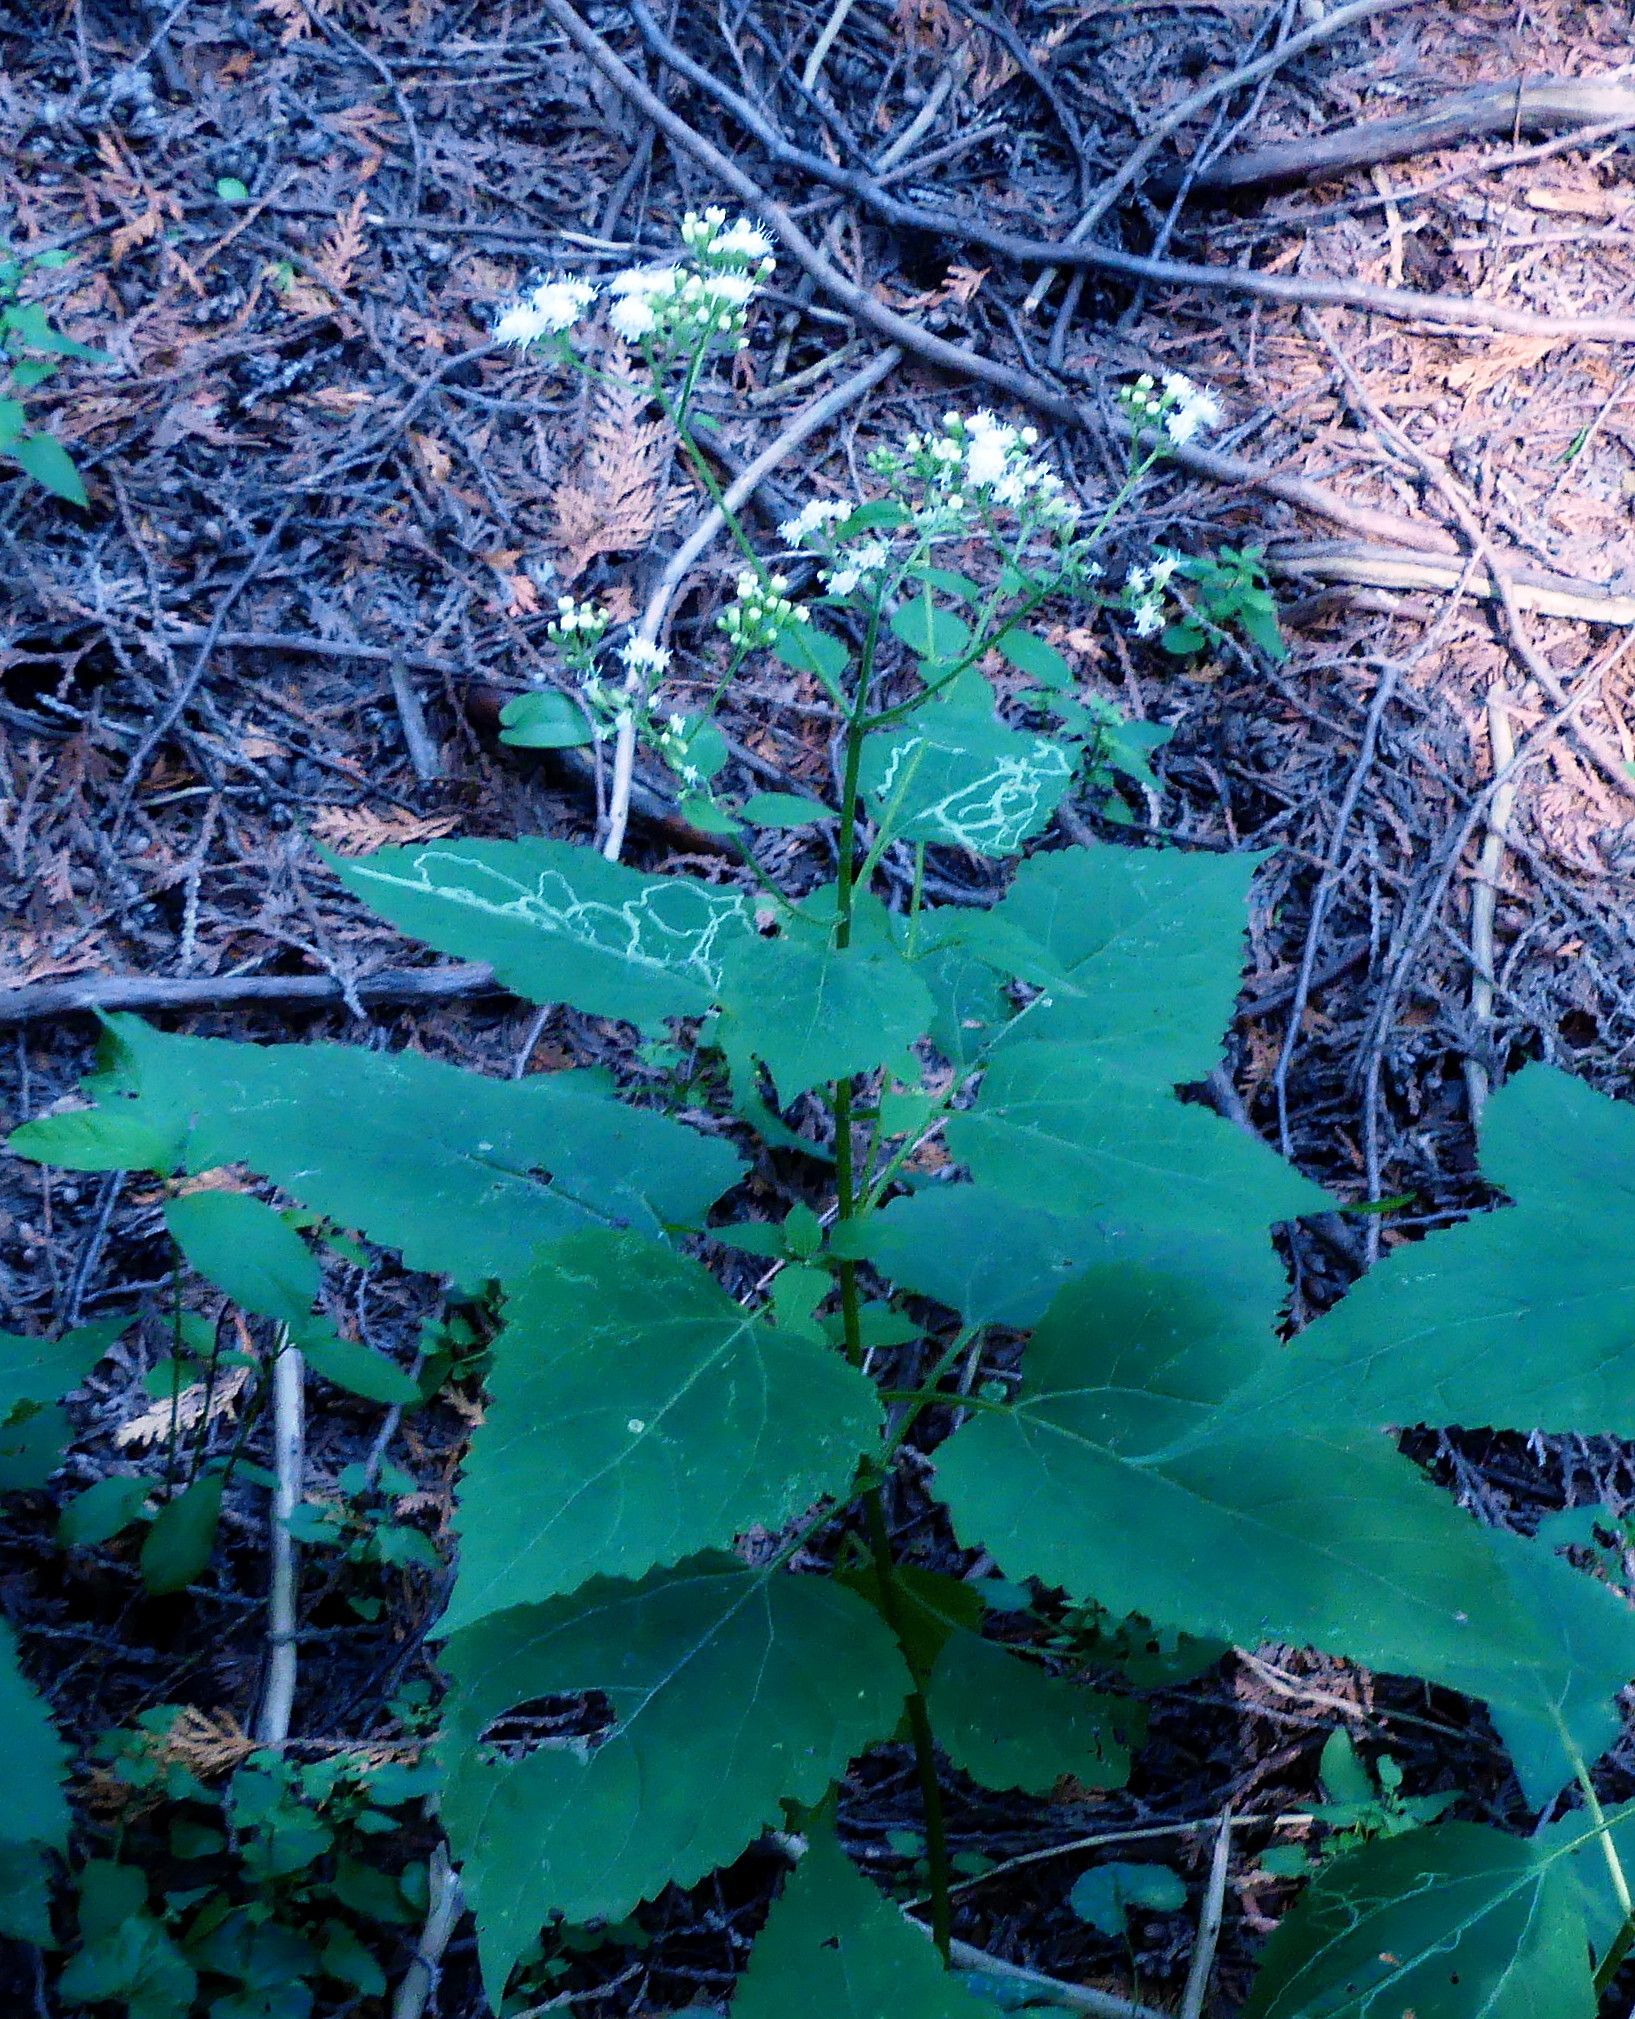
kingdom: Plantae
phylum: Tracheophyta
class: Magnoliopsida
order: Asterales
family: Asteraceae
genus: Ageratina
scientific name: Ageratina altissima
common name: White snakeroot
